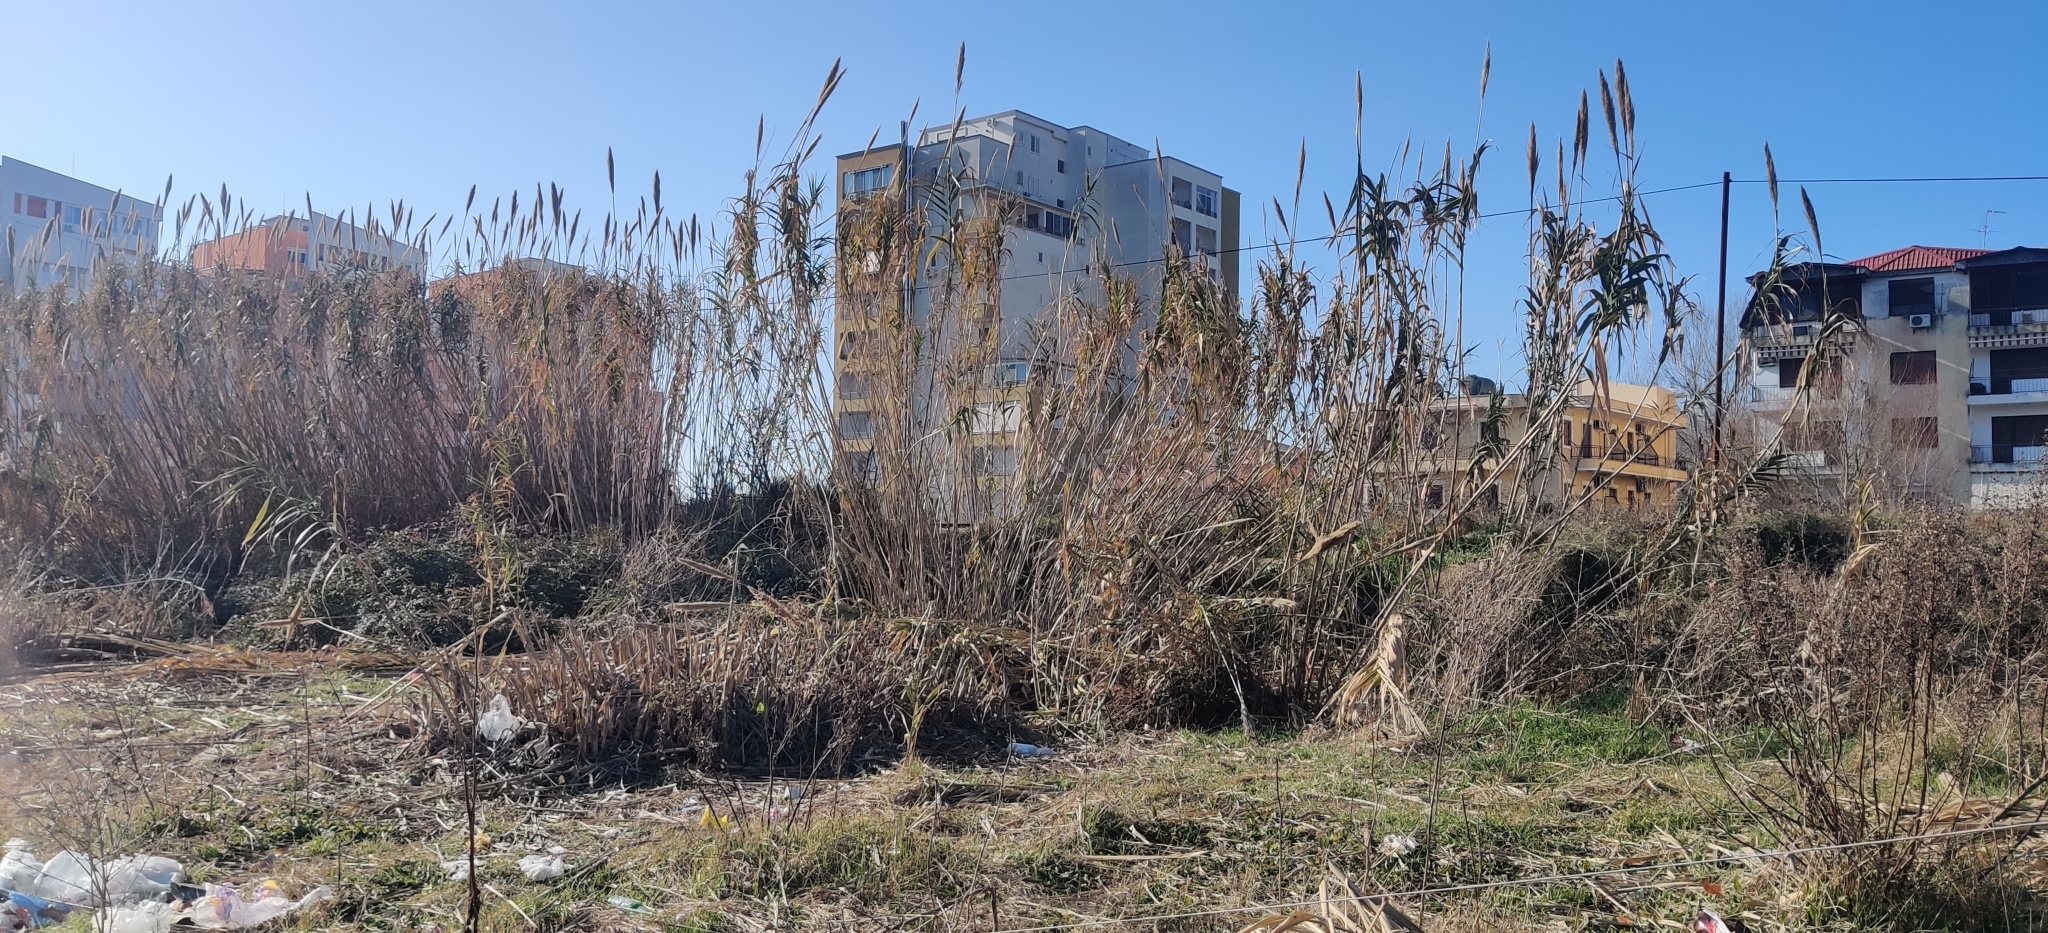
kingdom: Plantae
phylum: Tracheophyta
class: Liliopsida
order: Poales
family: Poaceae
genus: Arundo
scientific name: Arundo donax
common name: Giant reed
